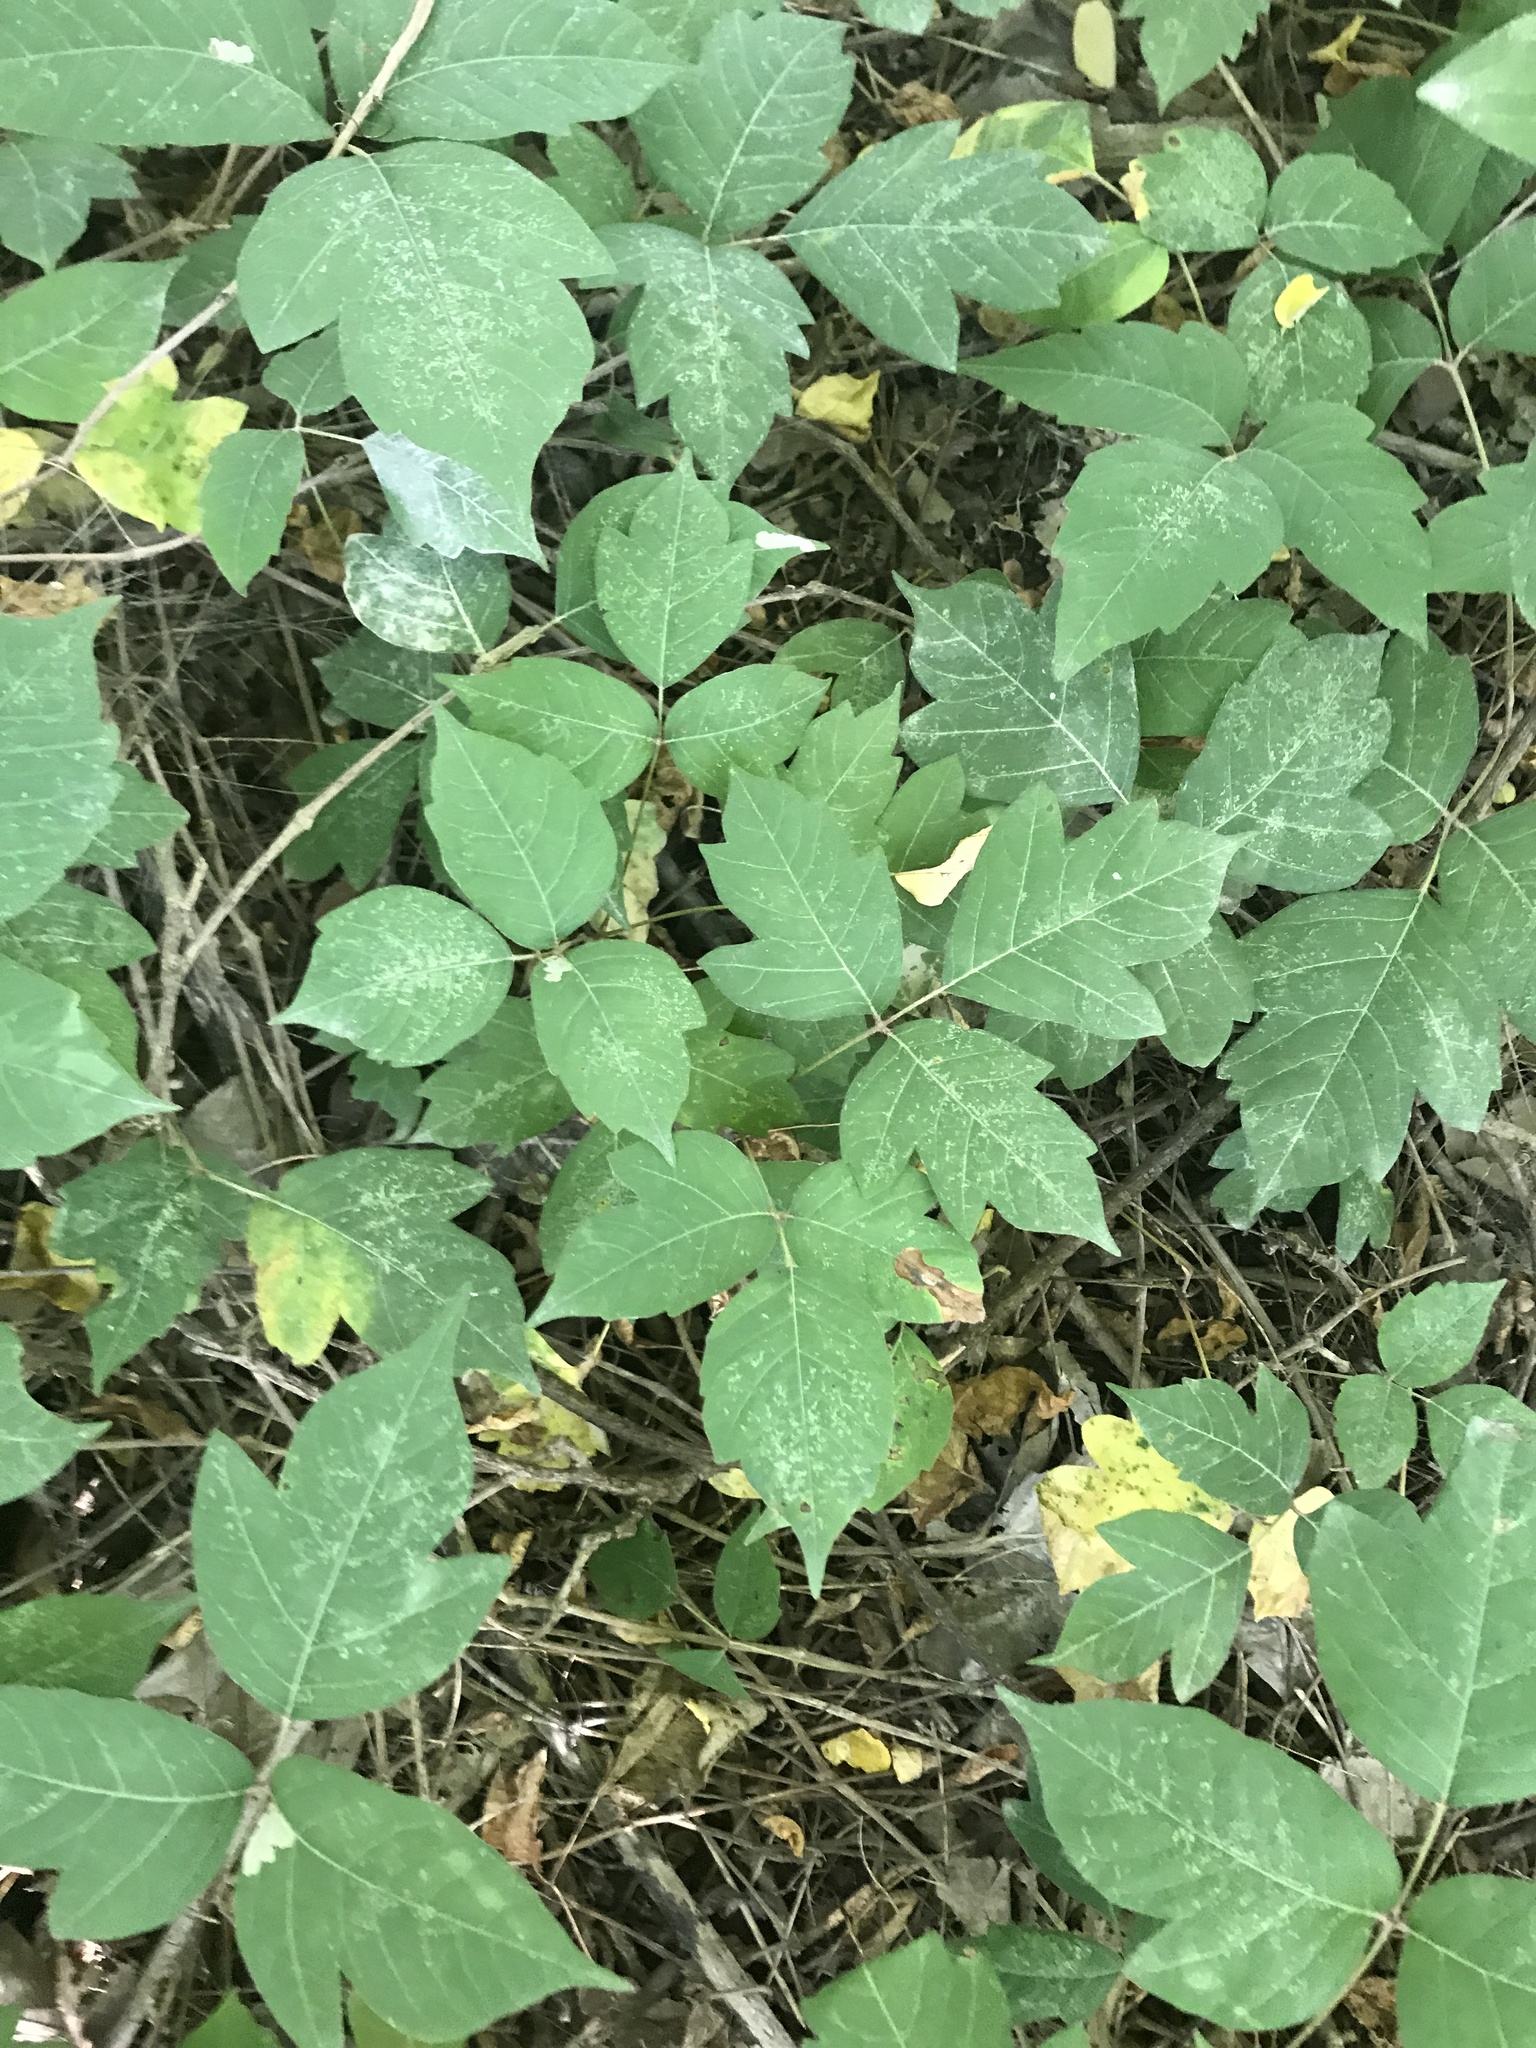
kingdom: Plantae
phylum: Tracheophyta
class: Magnoliopsida
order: Sapindales
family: Anacardiaceae
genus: Toxicodendron
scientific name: Toxicodendron radicans
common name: Poison ivy
